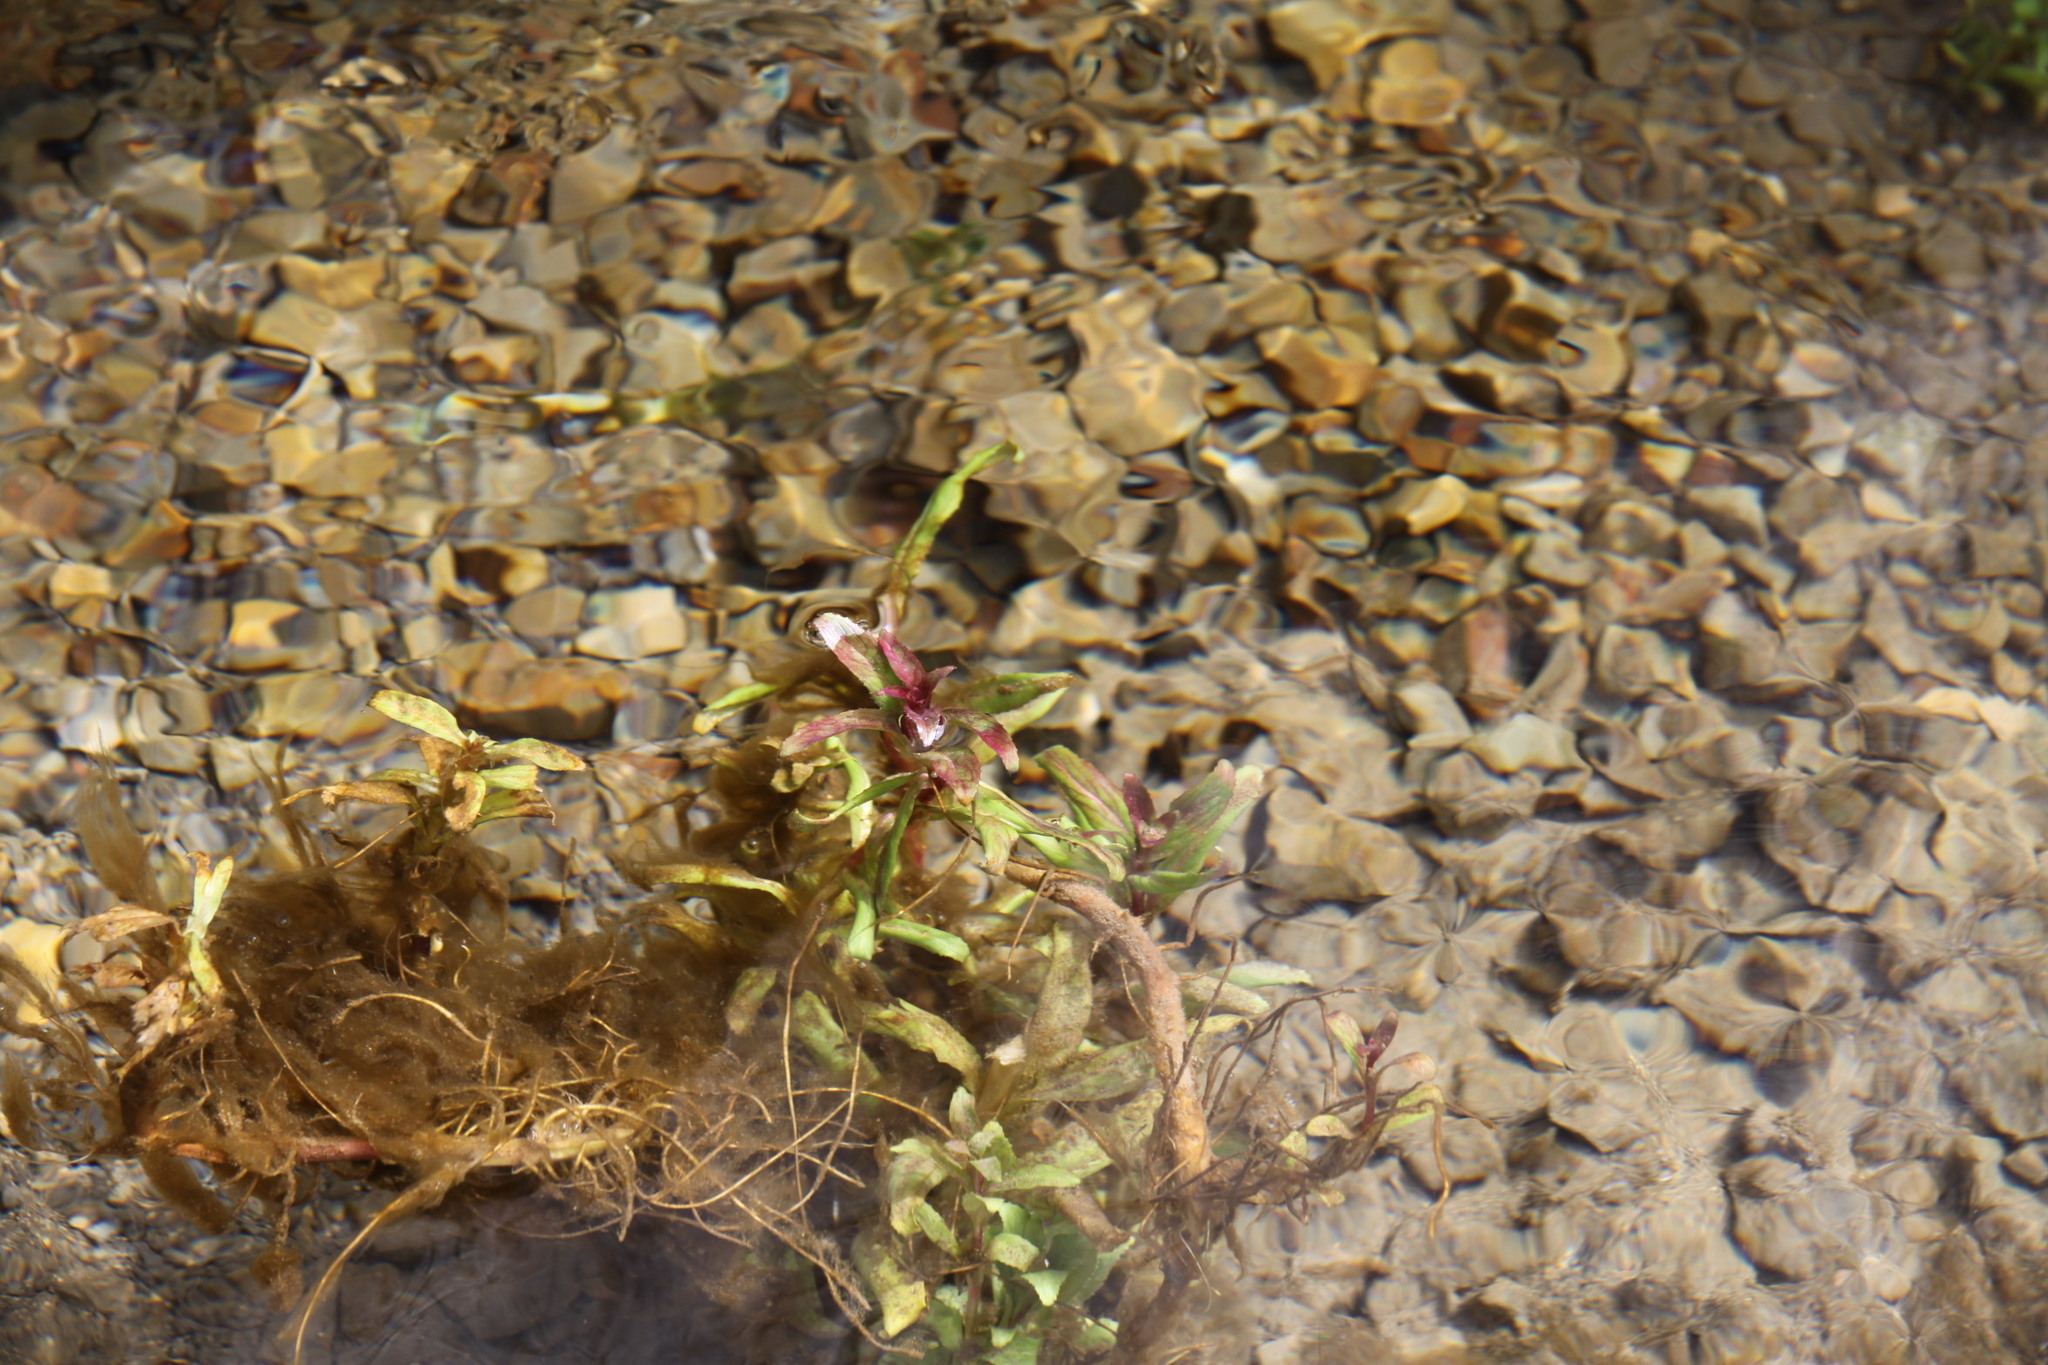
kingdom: Plantae
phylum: Tracheophyta
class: Magnoliopsida
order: Myrtales
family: Onagraceae
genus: Epilobium
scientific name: Epilobium hirsutum
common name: Great willowherb
